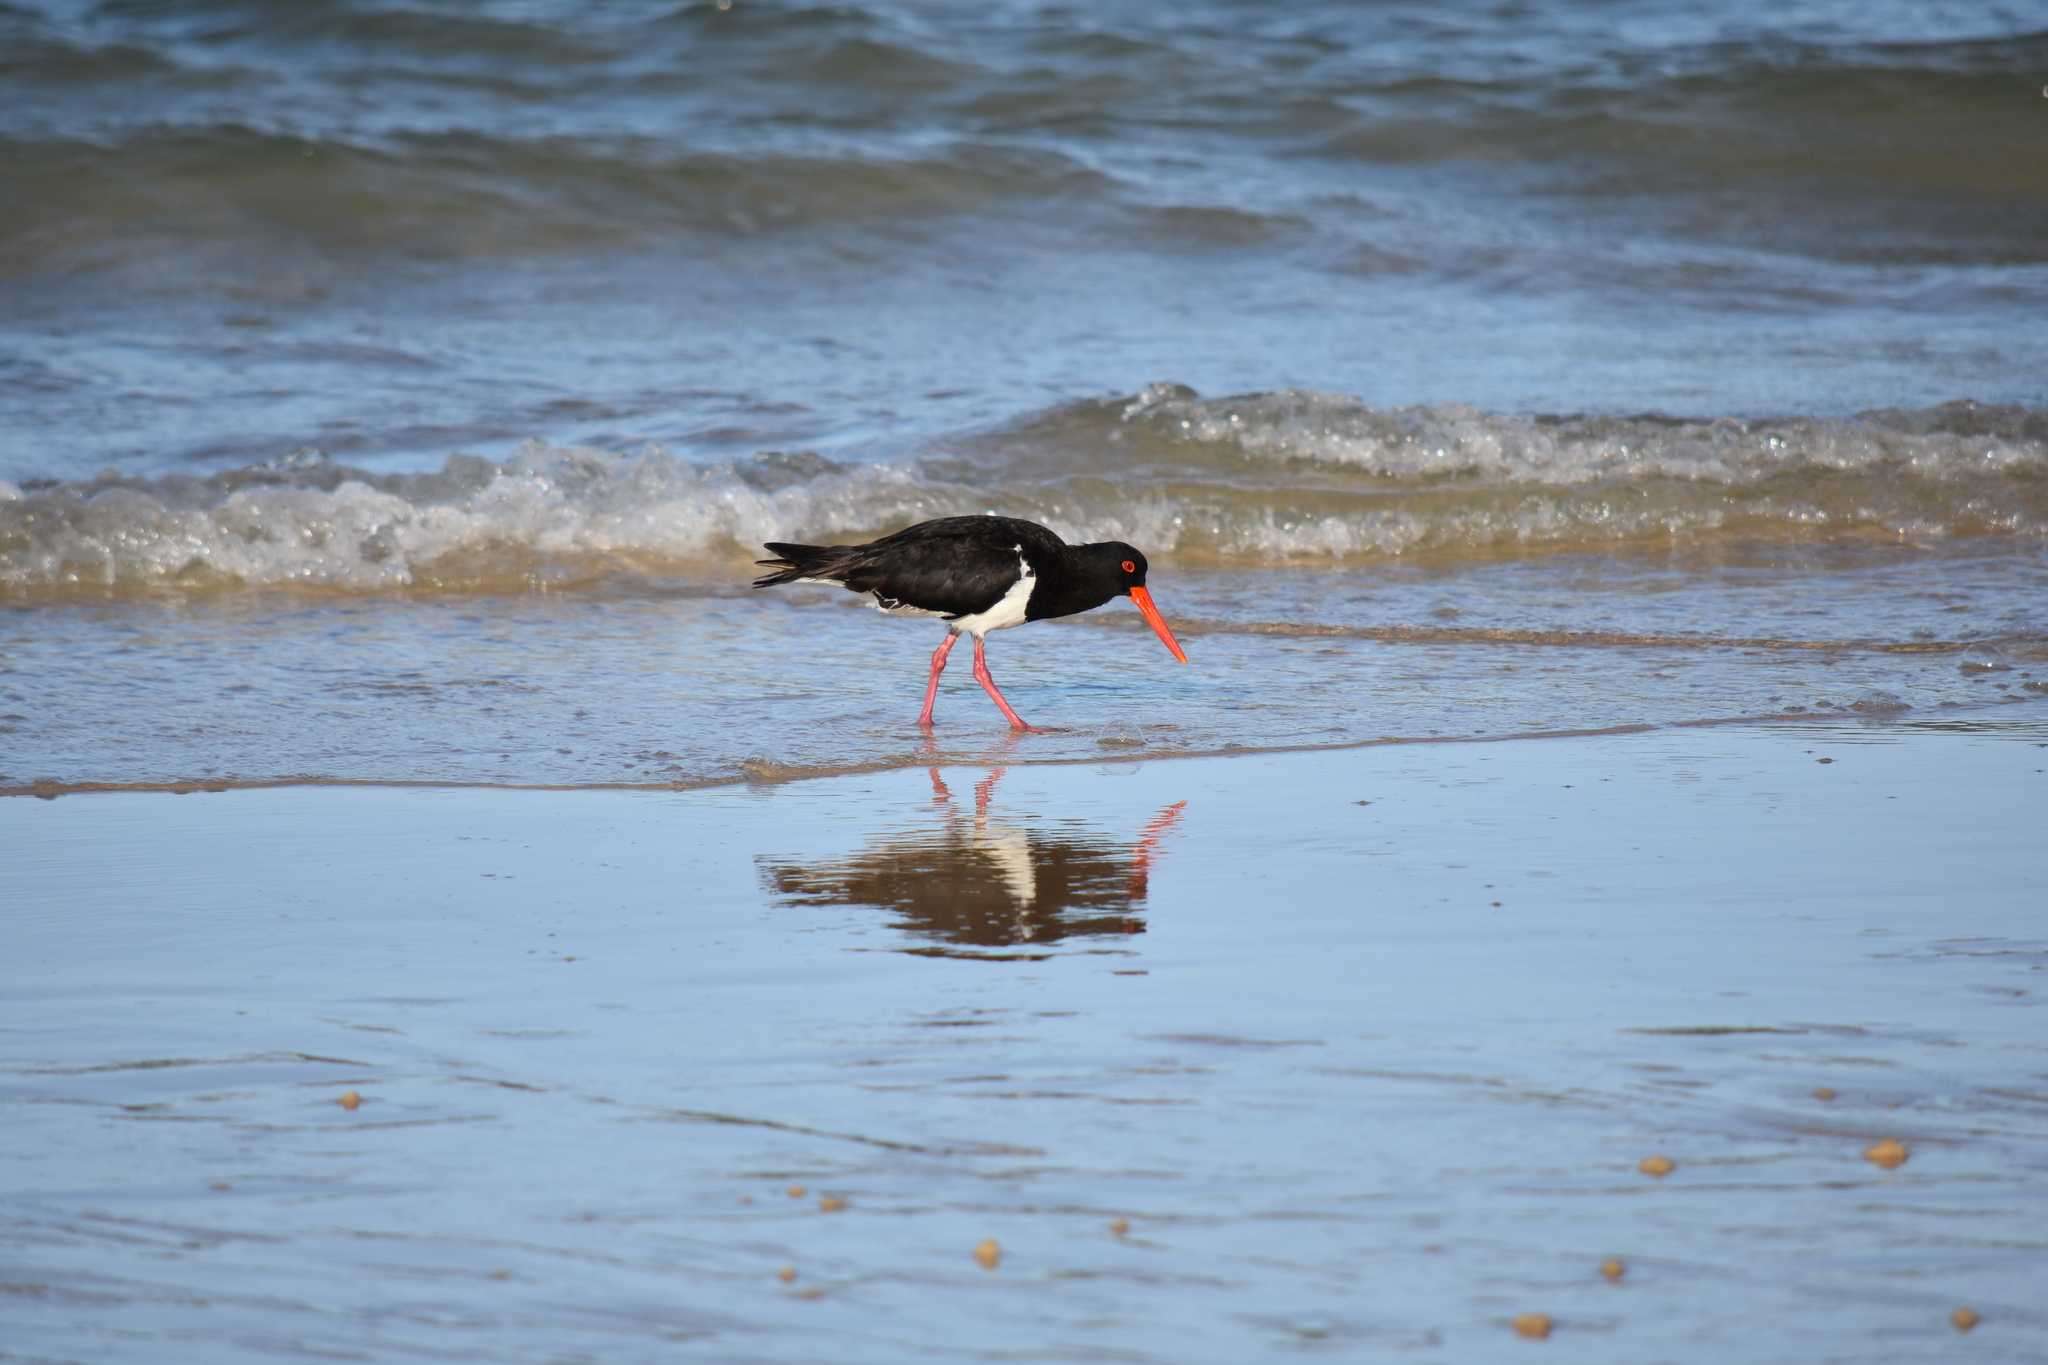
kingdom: Animalia
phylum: Chordata
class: Aves
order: Charadriiformes
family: Haematopodidae
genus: Haematopus
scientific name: Haematopus longirostris
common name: Pied oystercatcher
